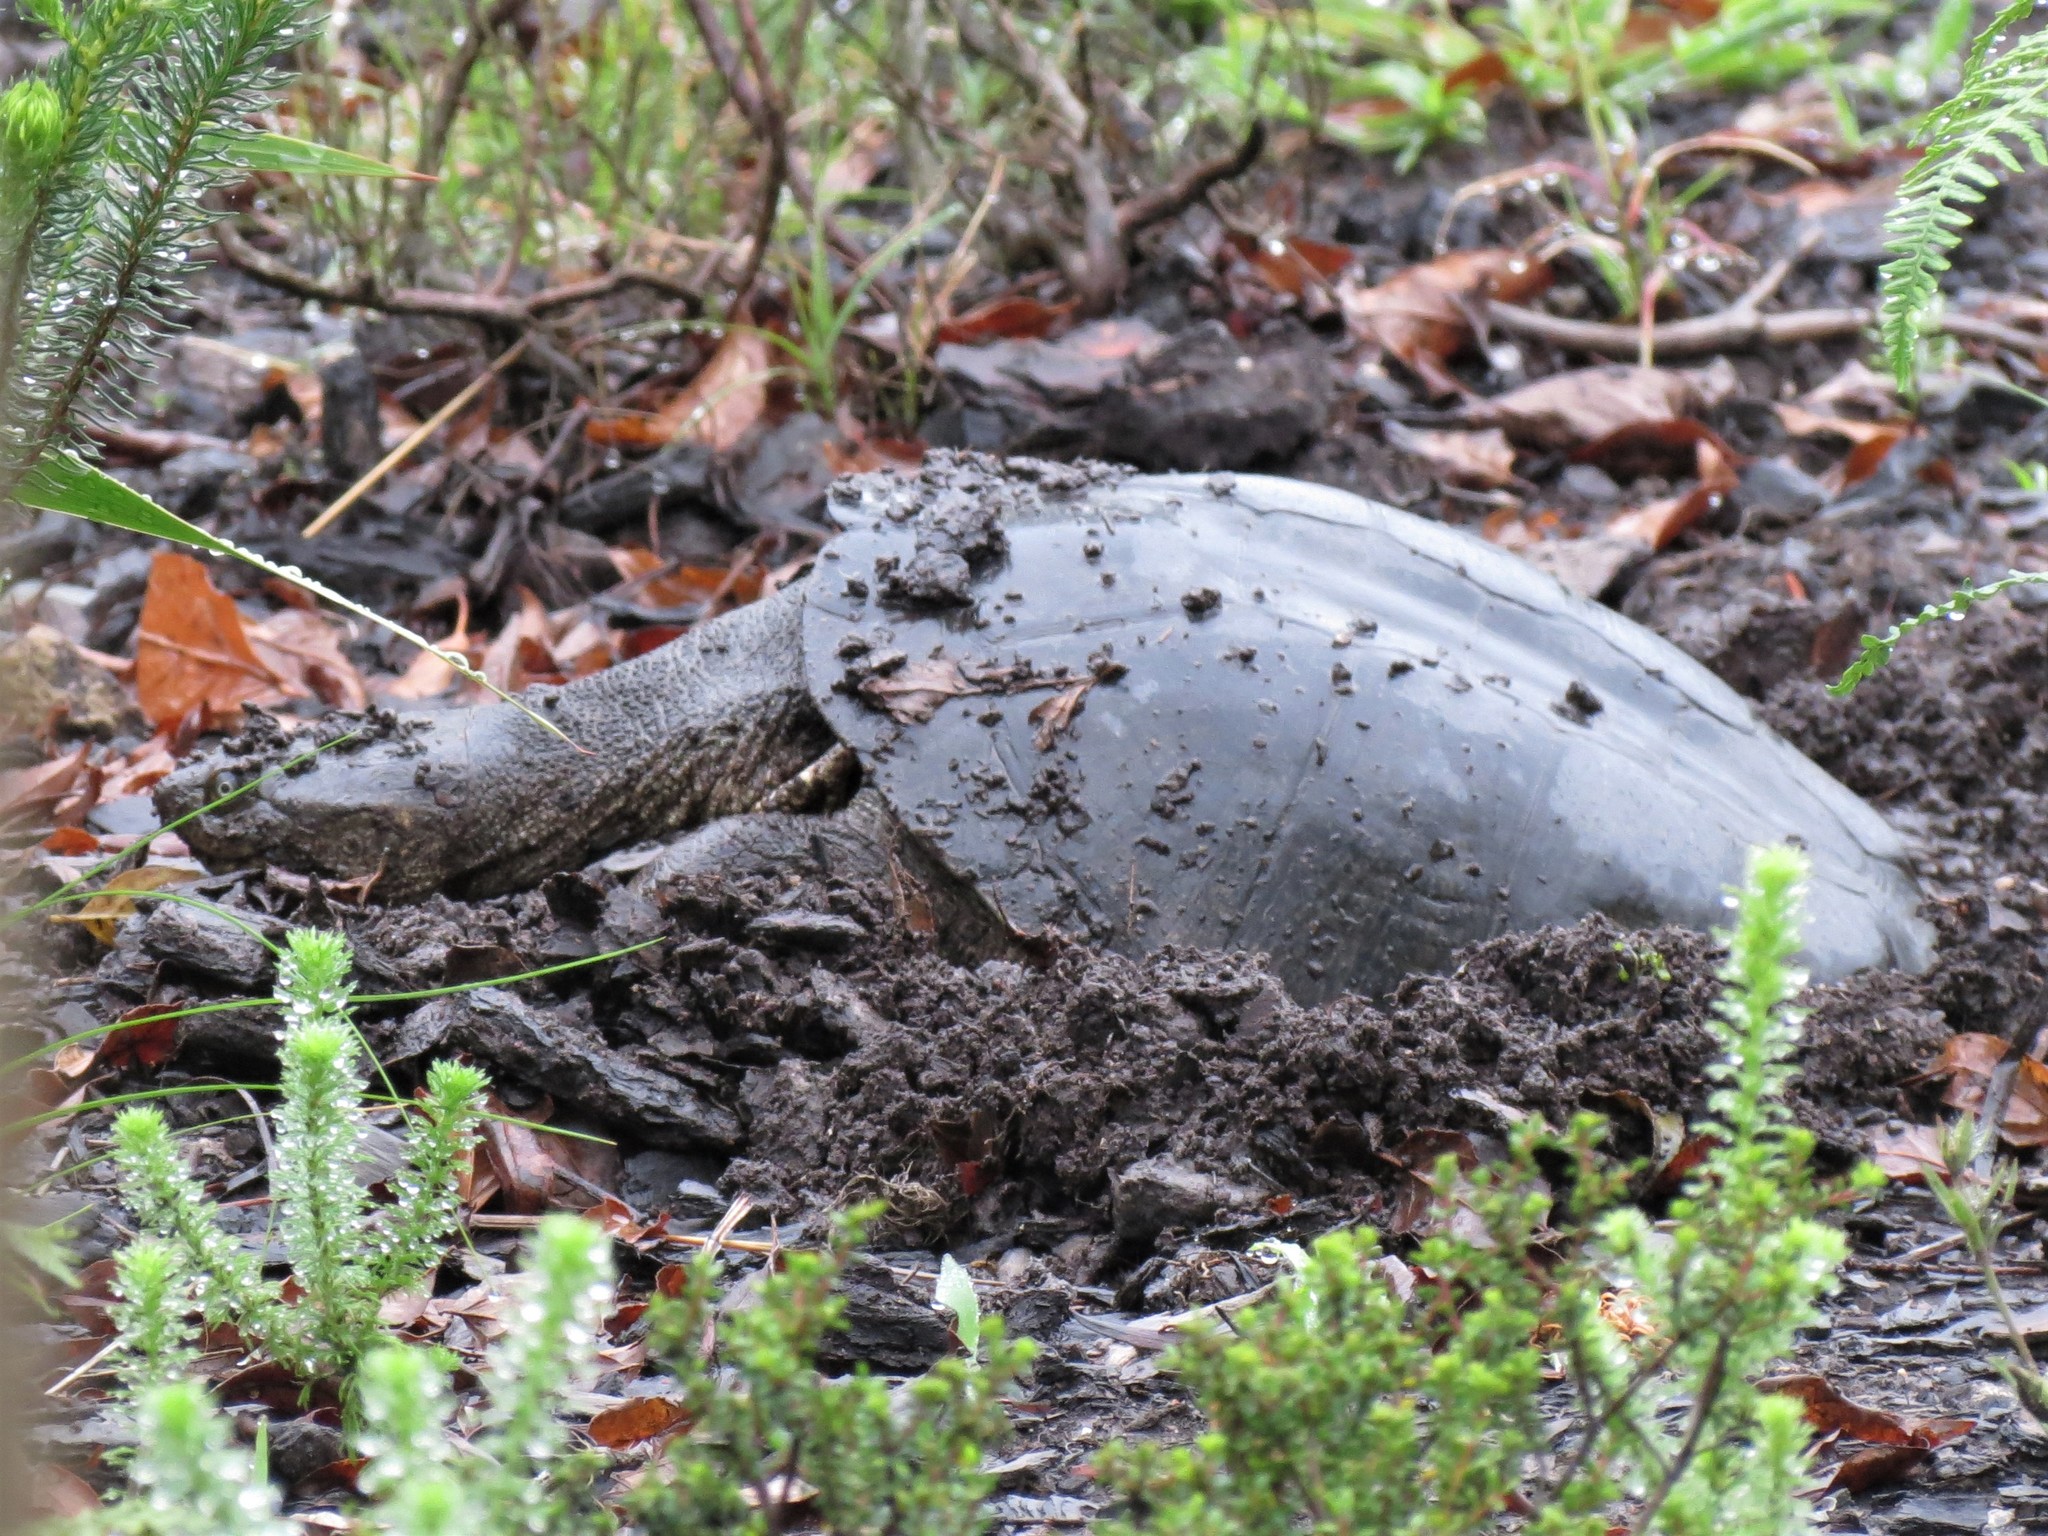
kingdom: Animalia
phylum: Chordata
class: Testudines
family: Pelomedusidae
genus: Pelomedusa
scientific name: Pelomedusa galeata
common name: South african helmeted terrapin
